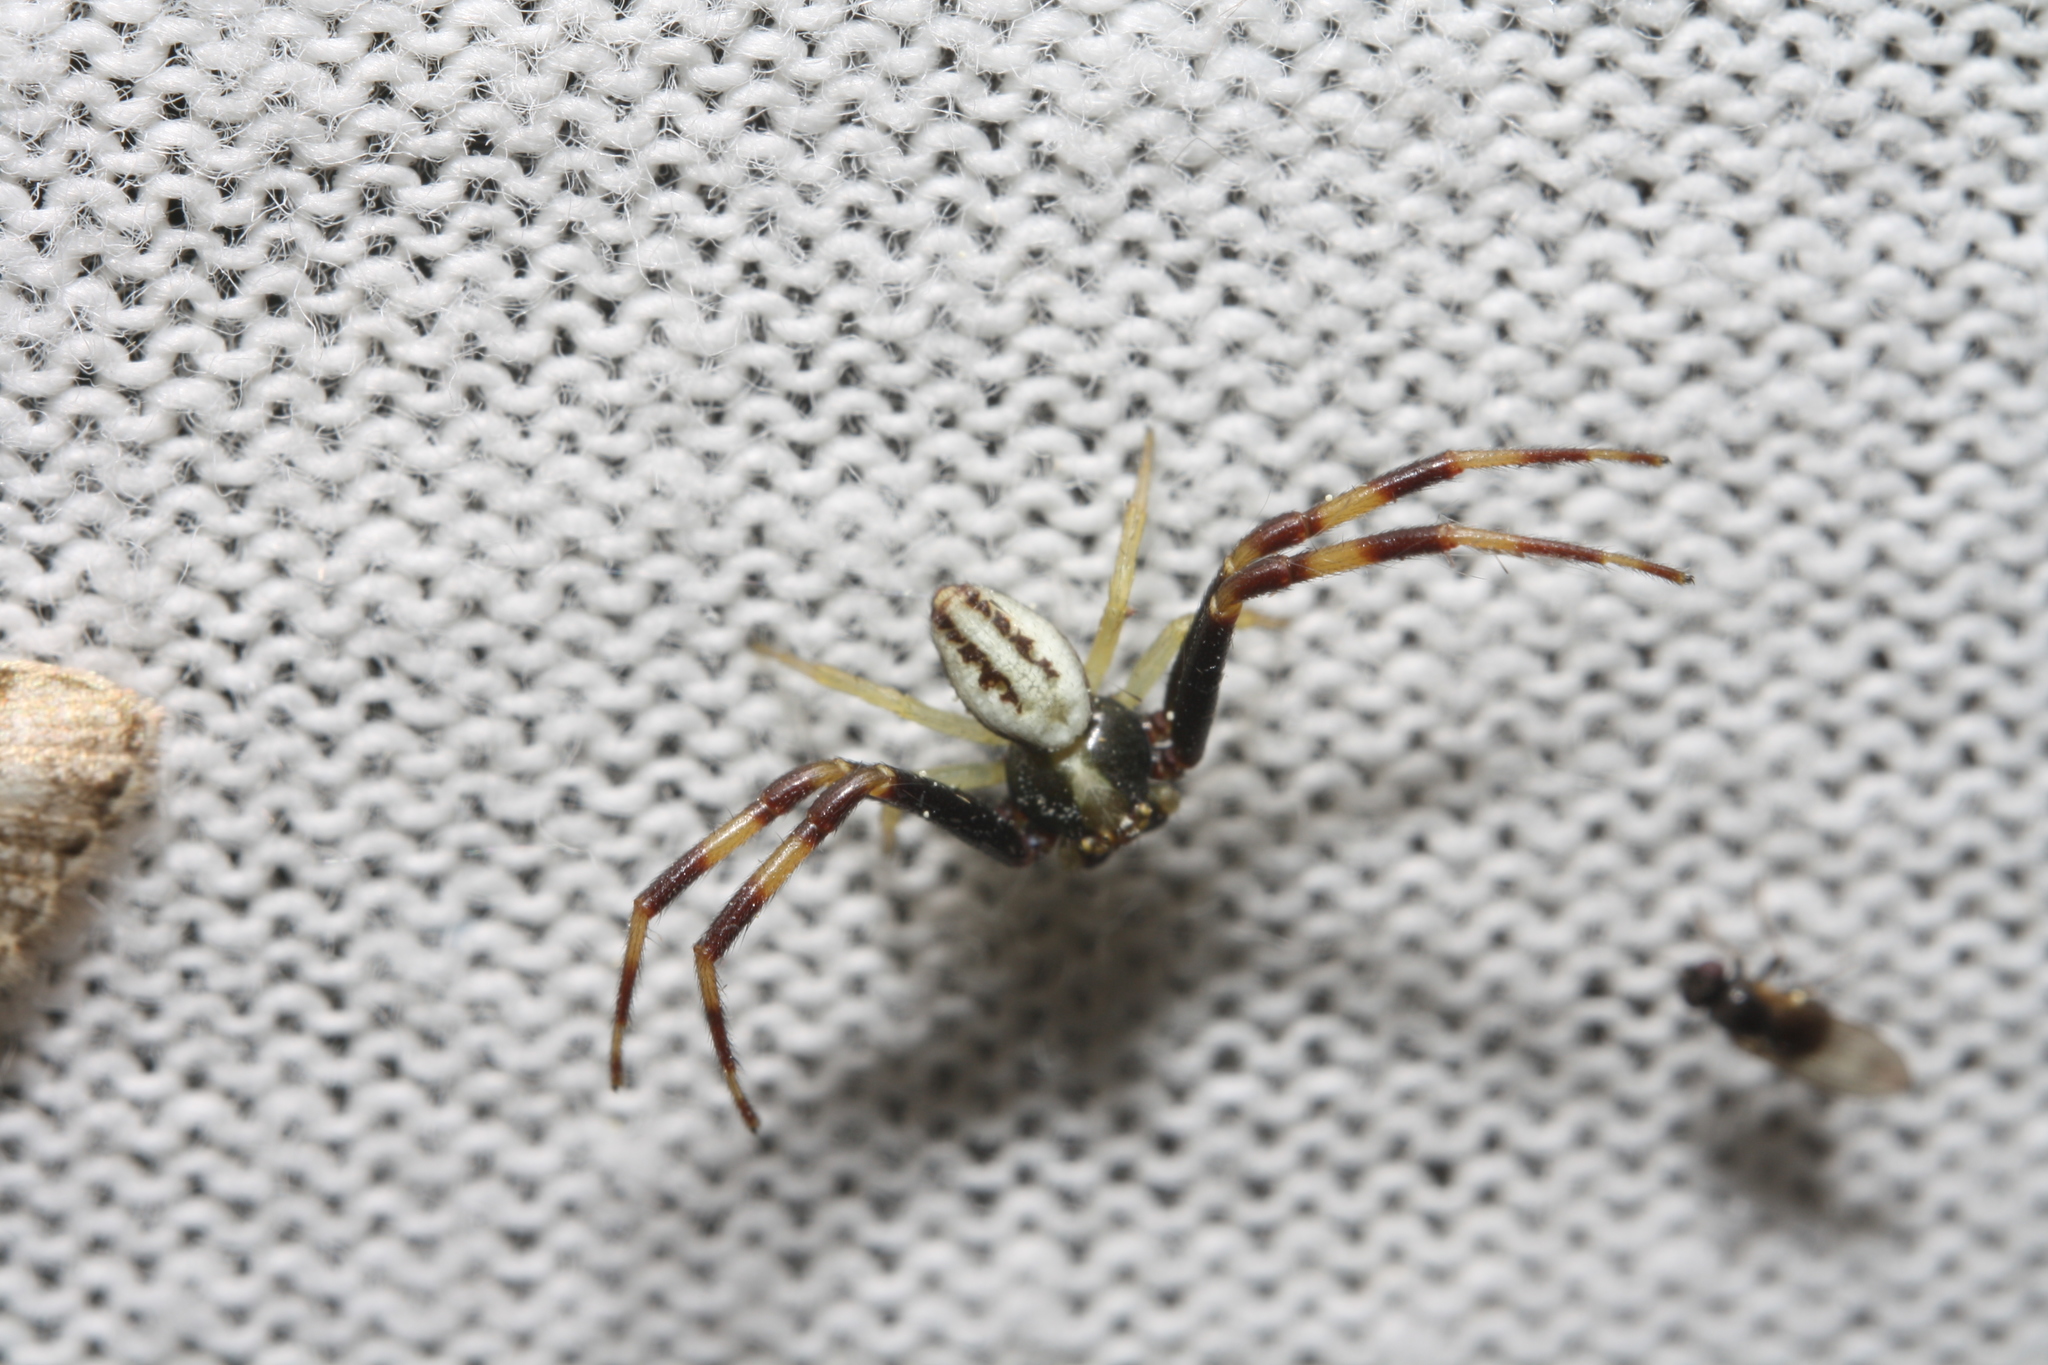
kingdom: Animalia
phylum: Arthropoda
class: Arachnida
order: Araneae
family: Thomisidae
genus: Misumena
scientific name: Misumena vatia
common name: Goldenrod crab spider
